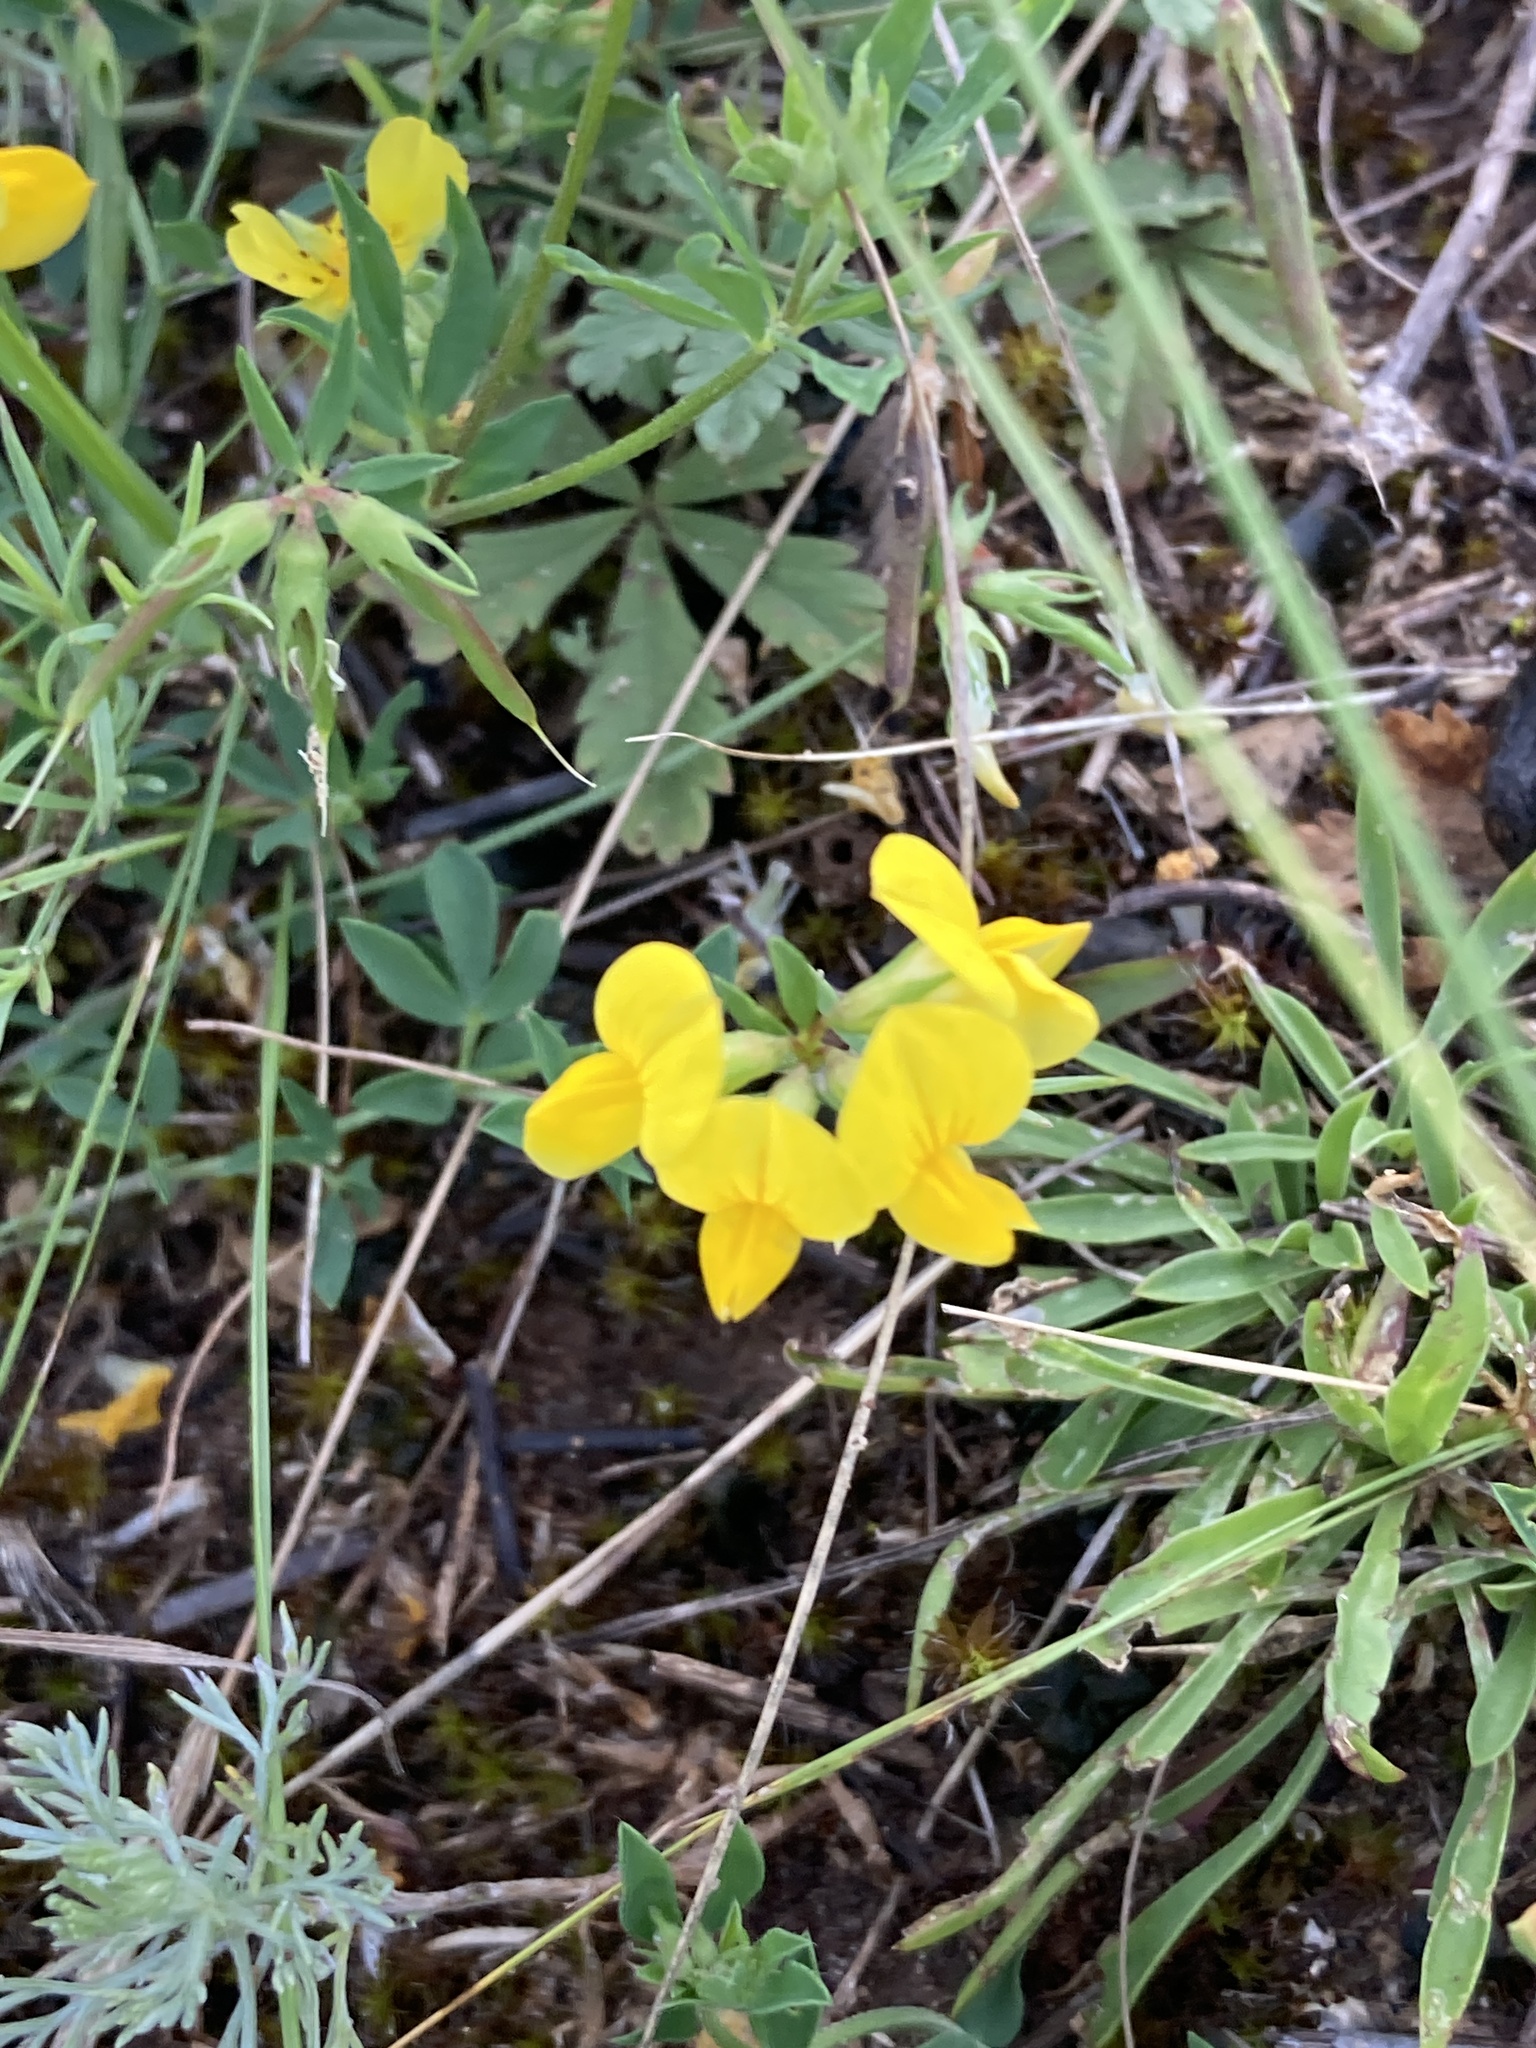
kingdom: Plantae
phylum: Tracheophyta
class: Magnoliopsida
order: Fabales
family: Fabaceae
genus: Lotus
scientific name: Lotus corniculatus
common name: Common bird's-foot-trefoil
